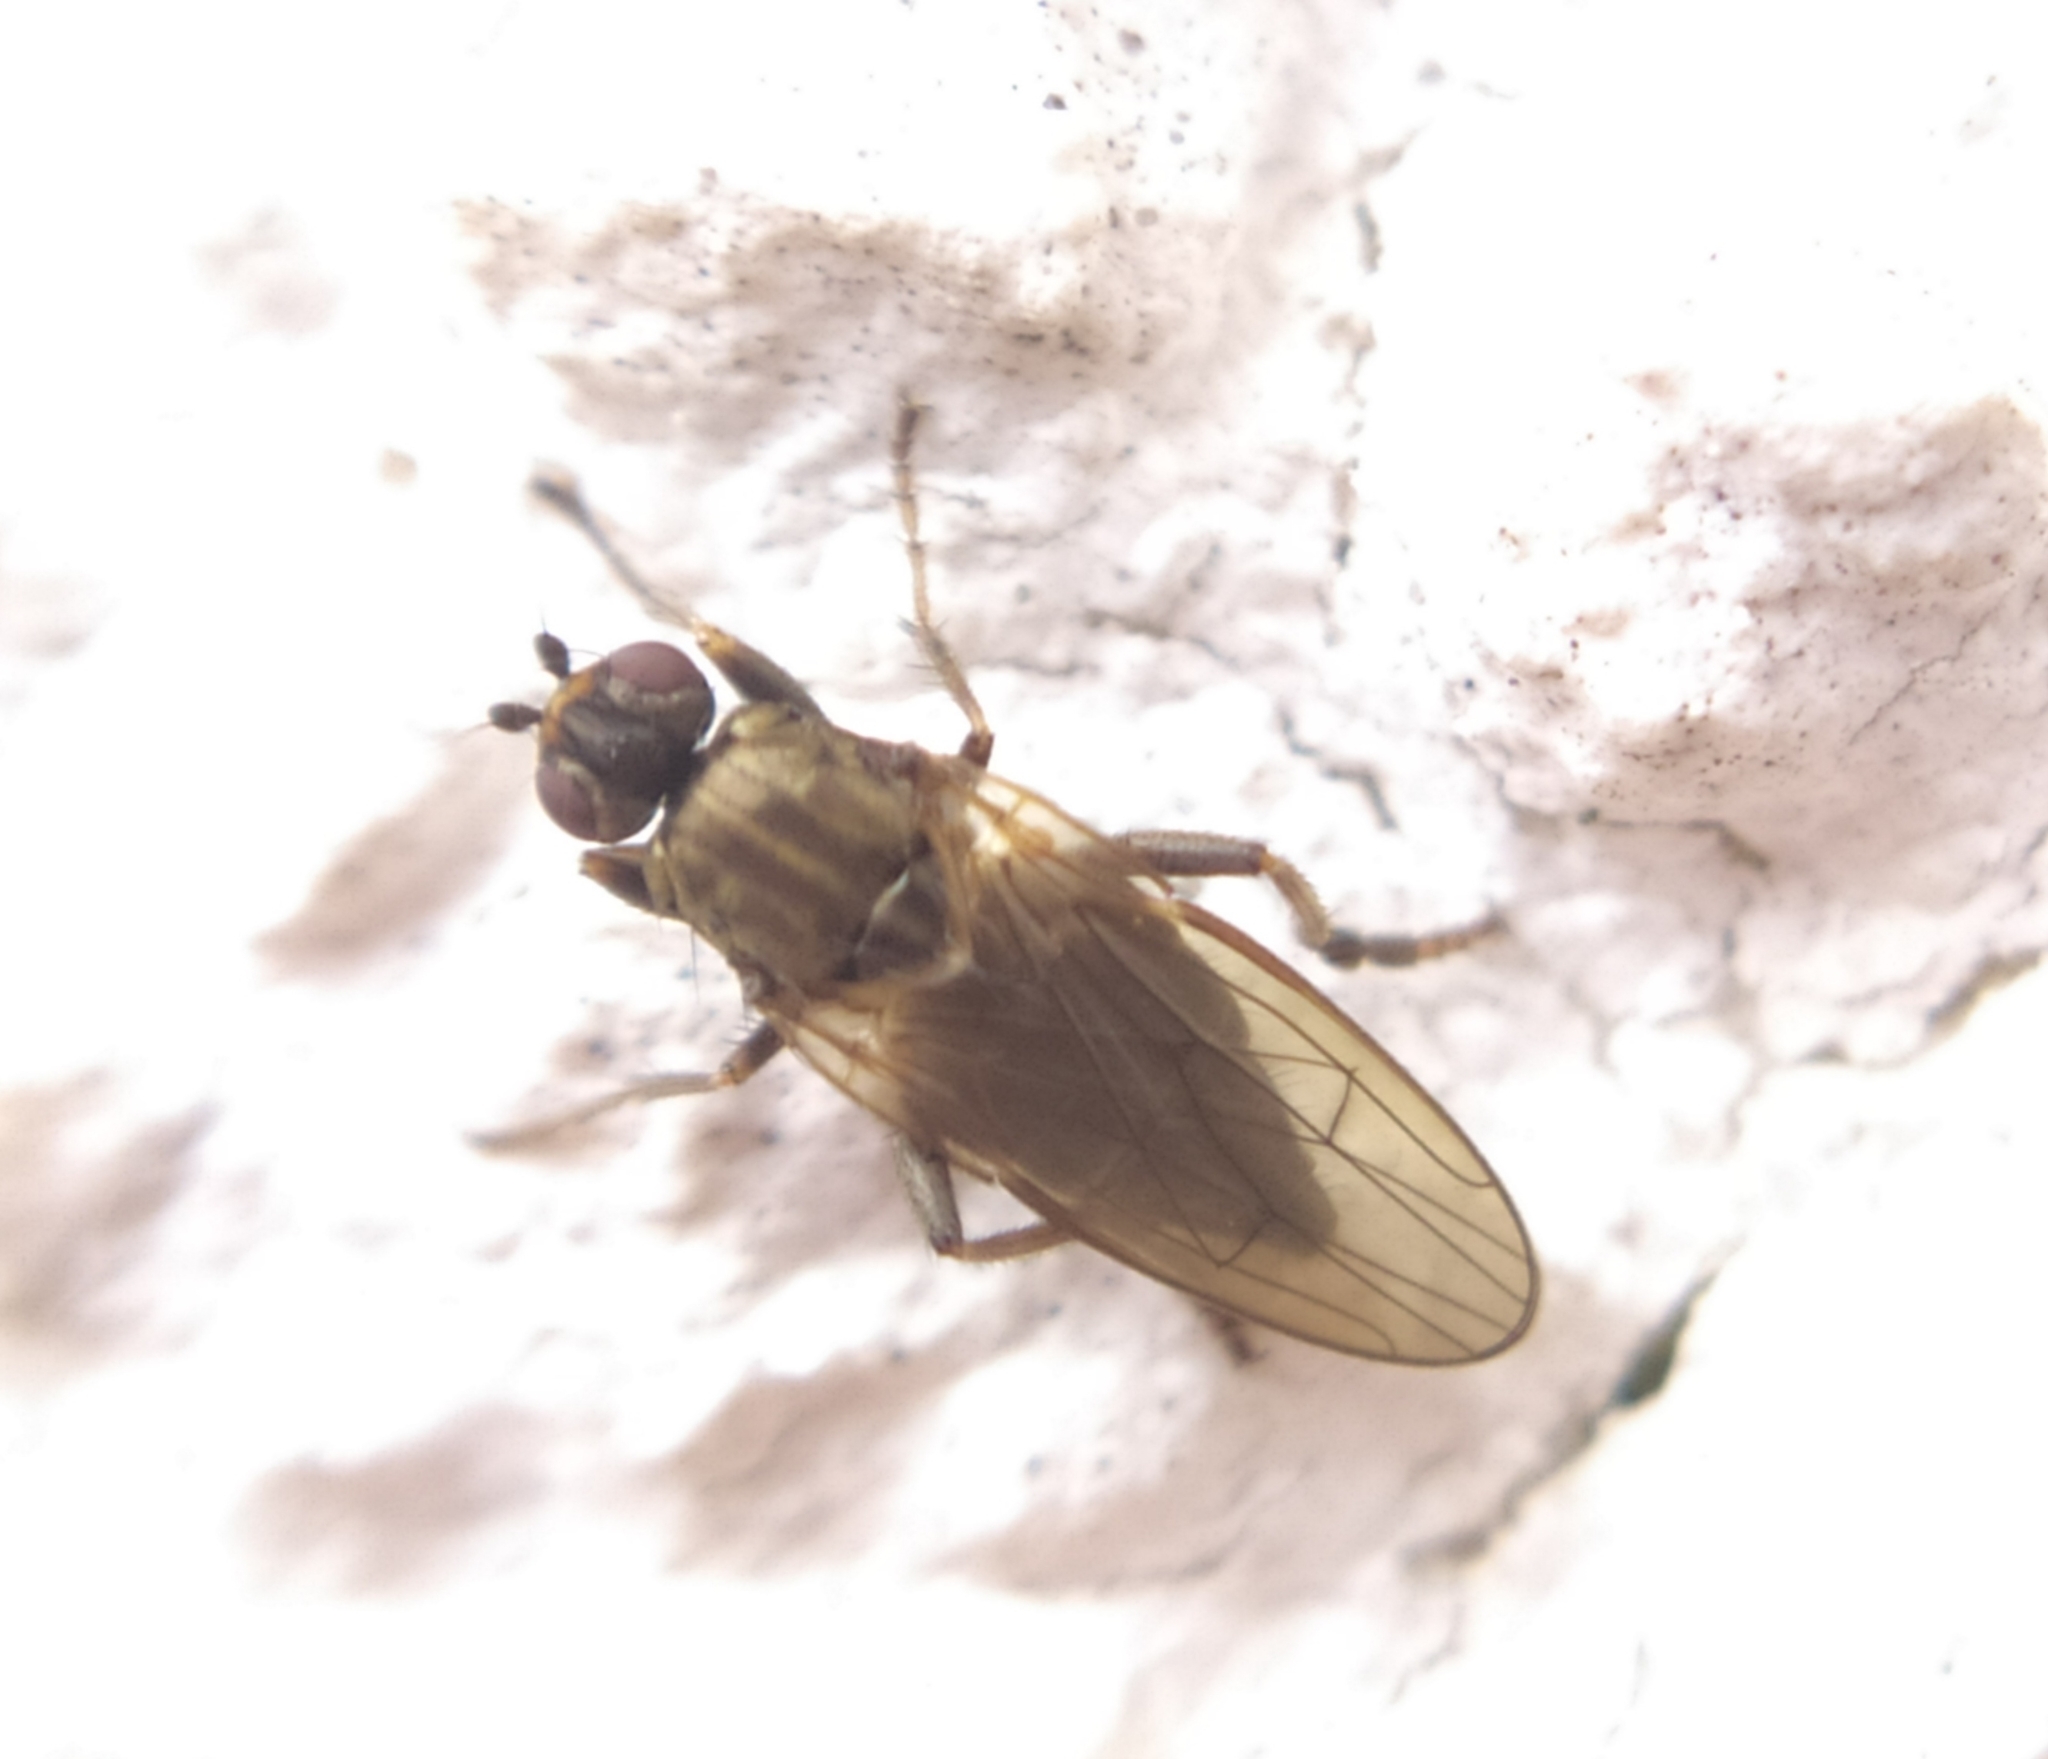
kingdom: Animalia
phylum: Arthropoda
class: Insecta
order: Diptera
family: Sphaeroceridae
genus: Copromyza
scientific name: Copromyza stercoraria
